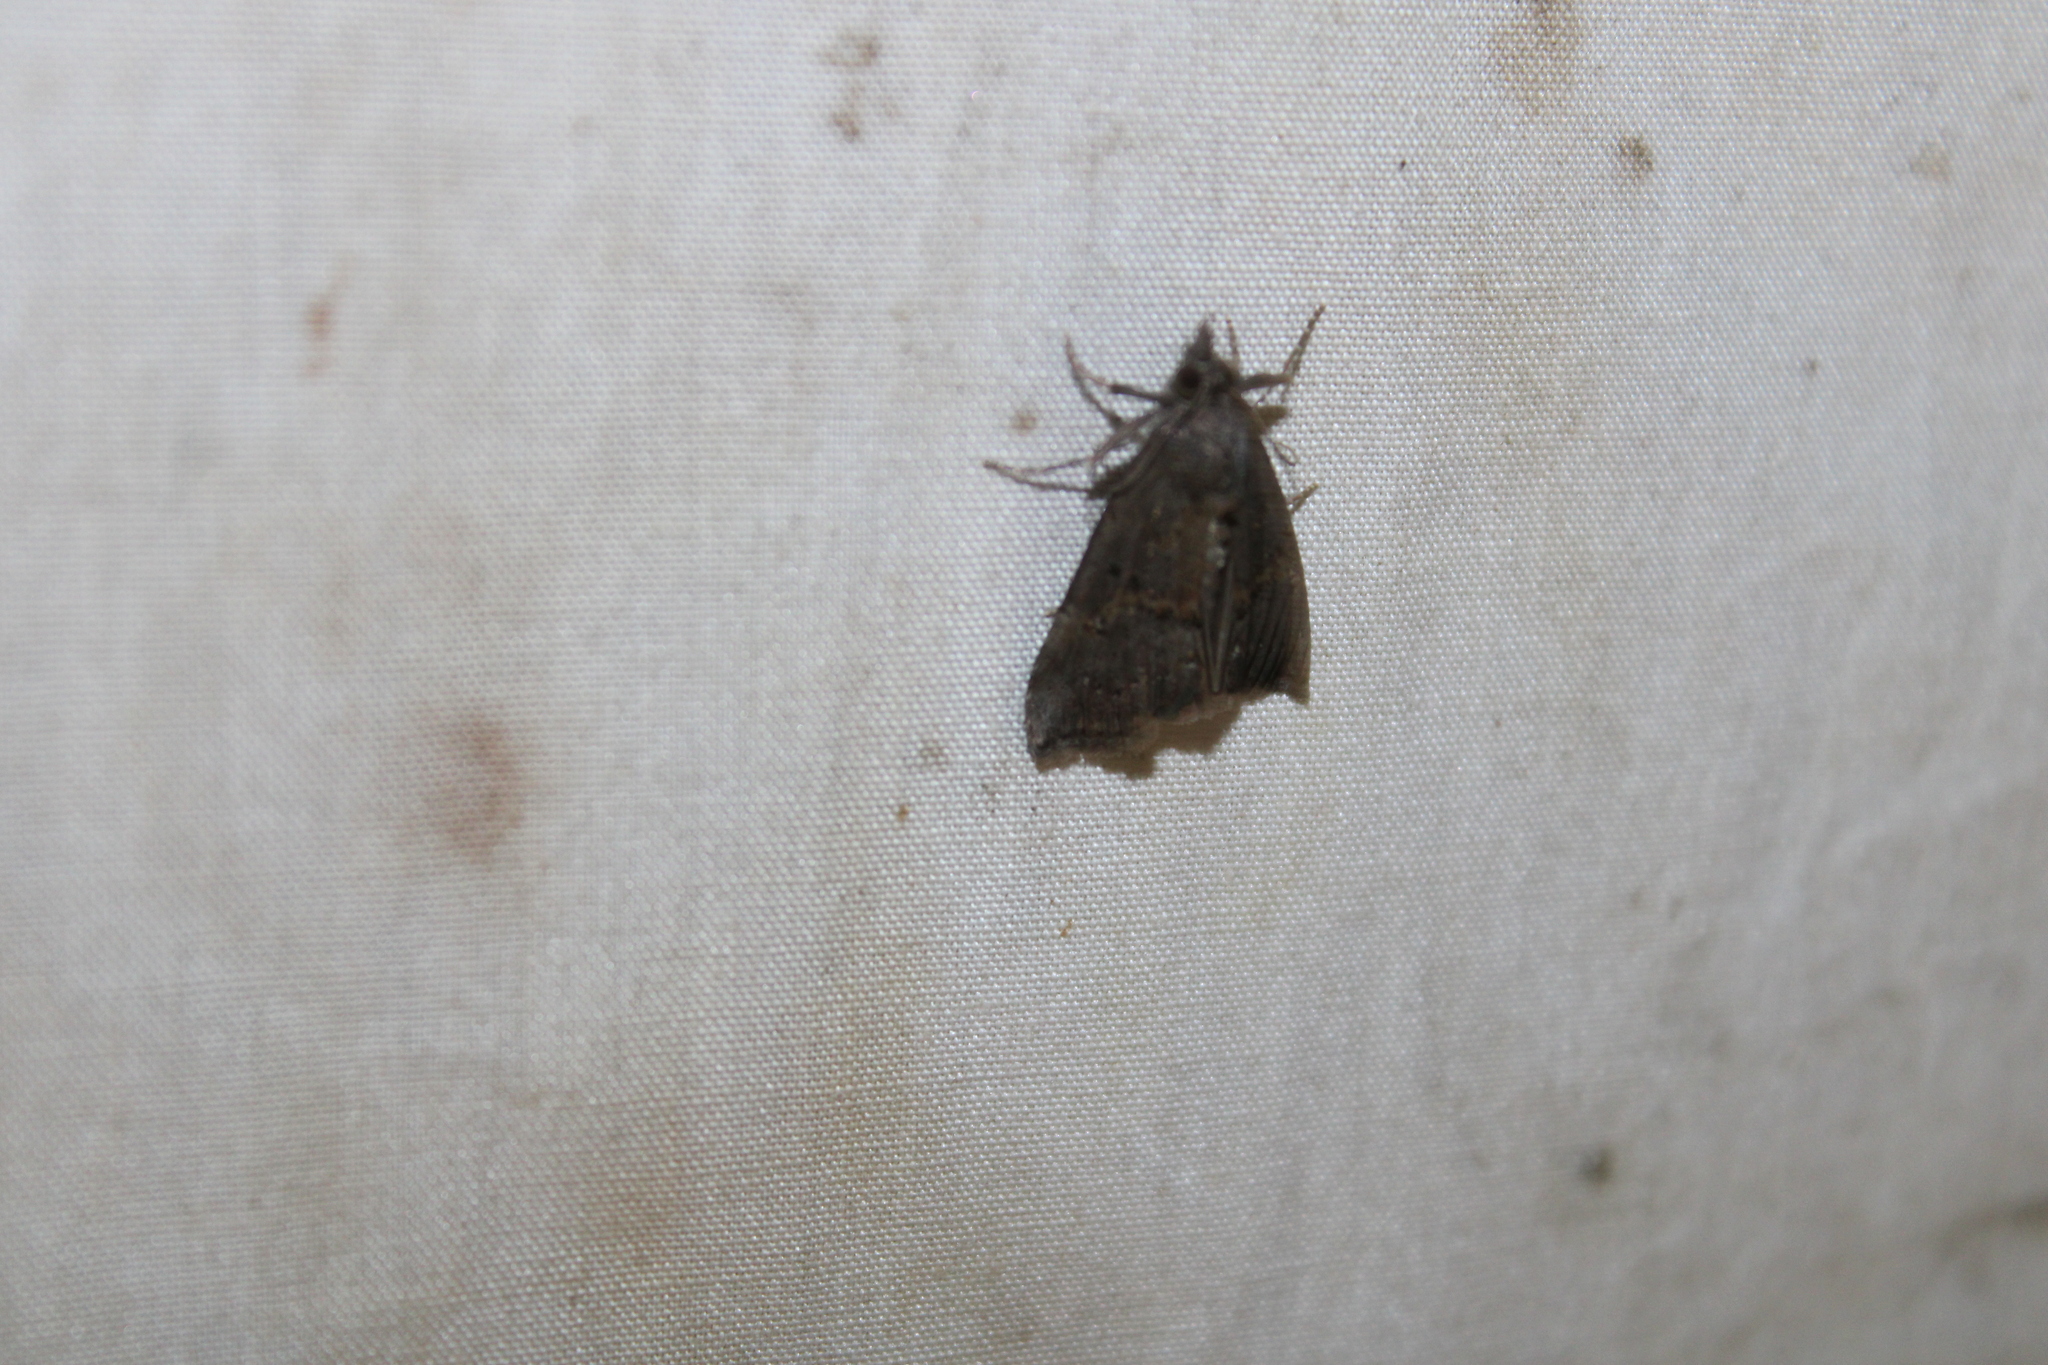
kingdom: Animalia
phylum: Arthropoda
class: Insecta
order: Lepidoptera
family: Erebidae
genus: Hypena
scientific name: Hypena scabra
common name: Green cloverworm
